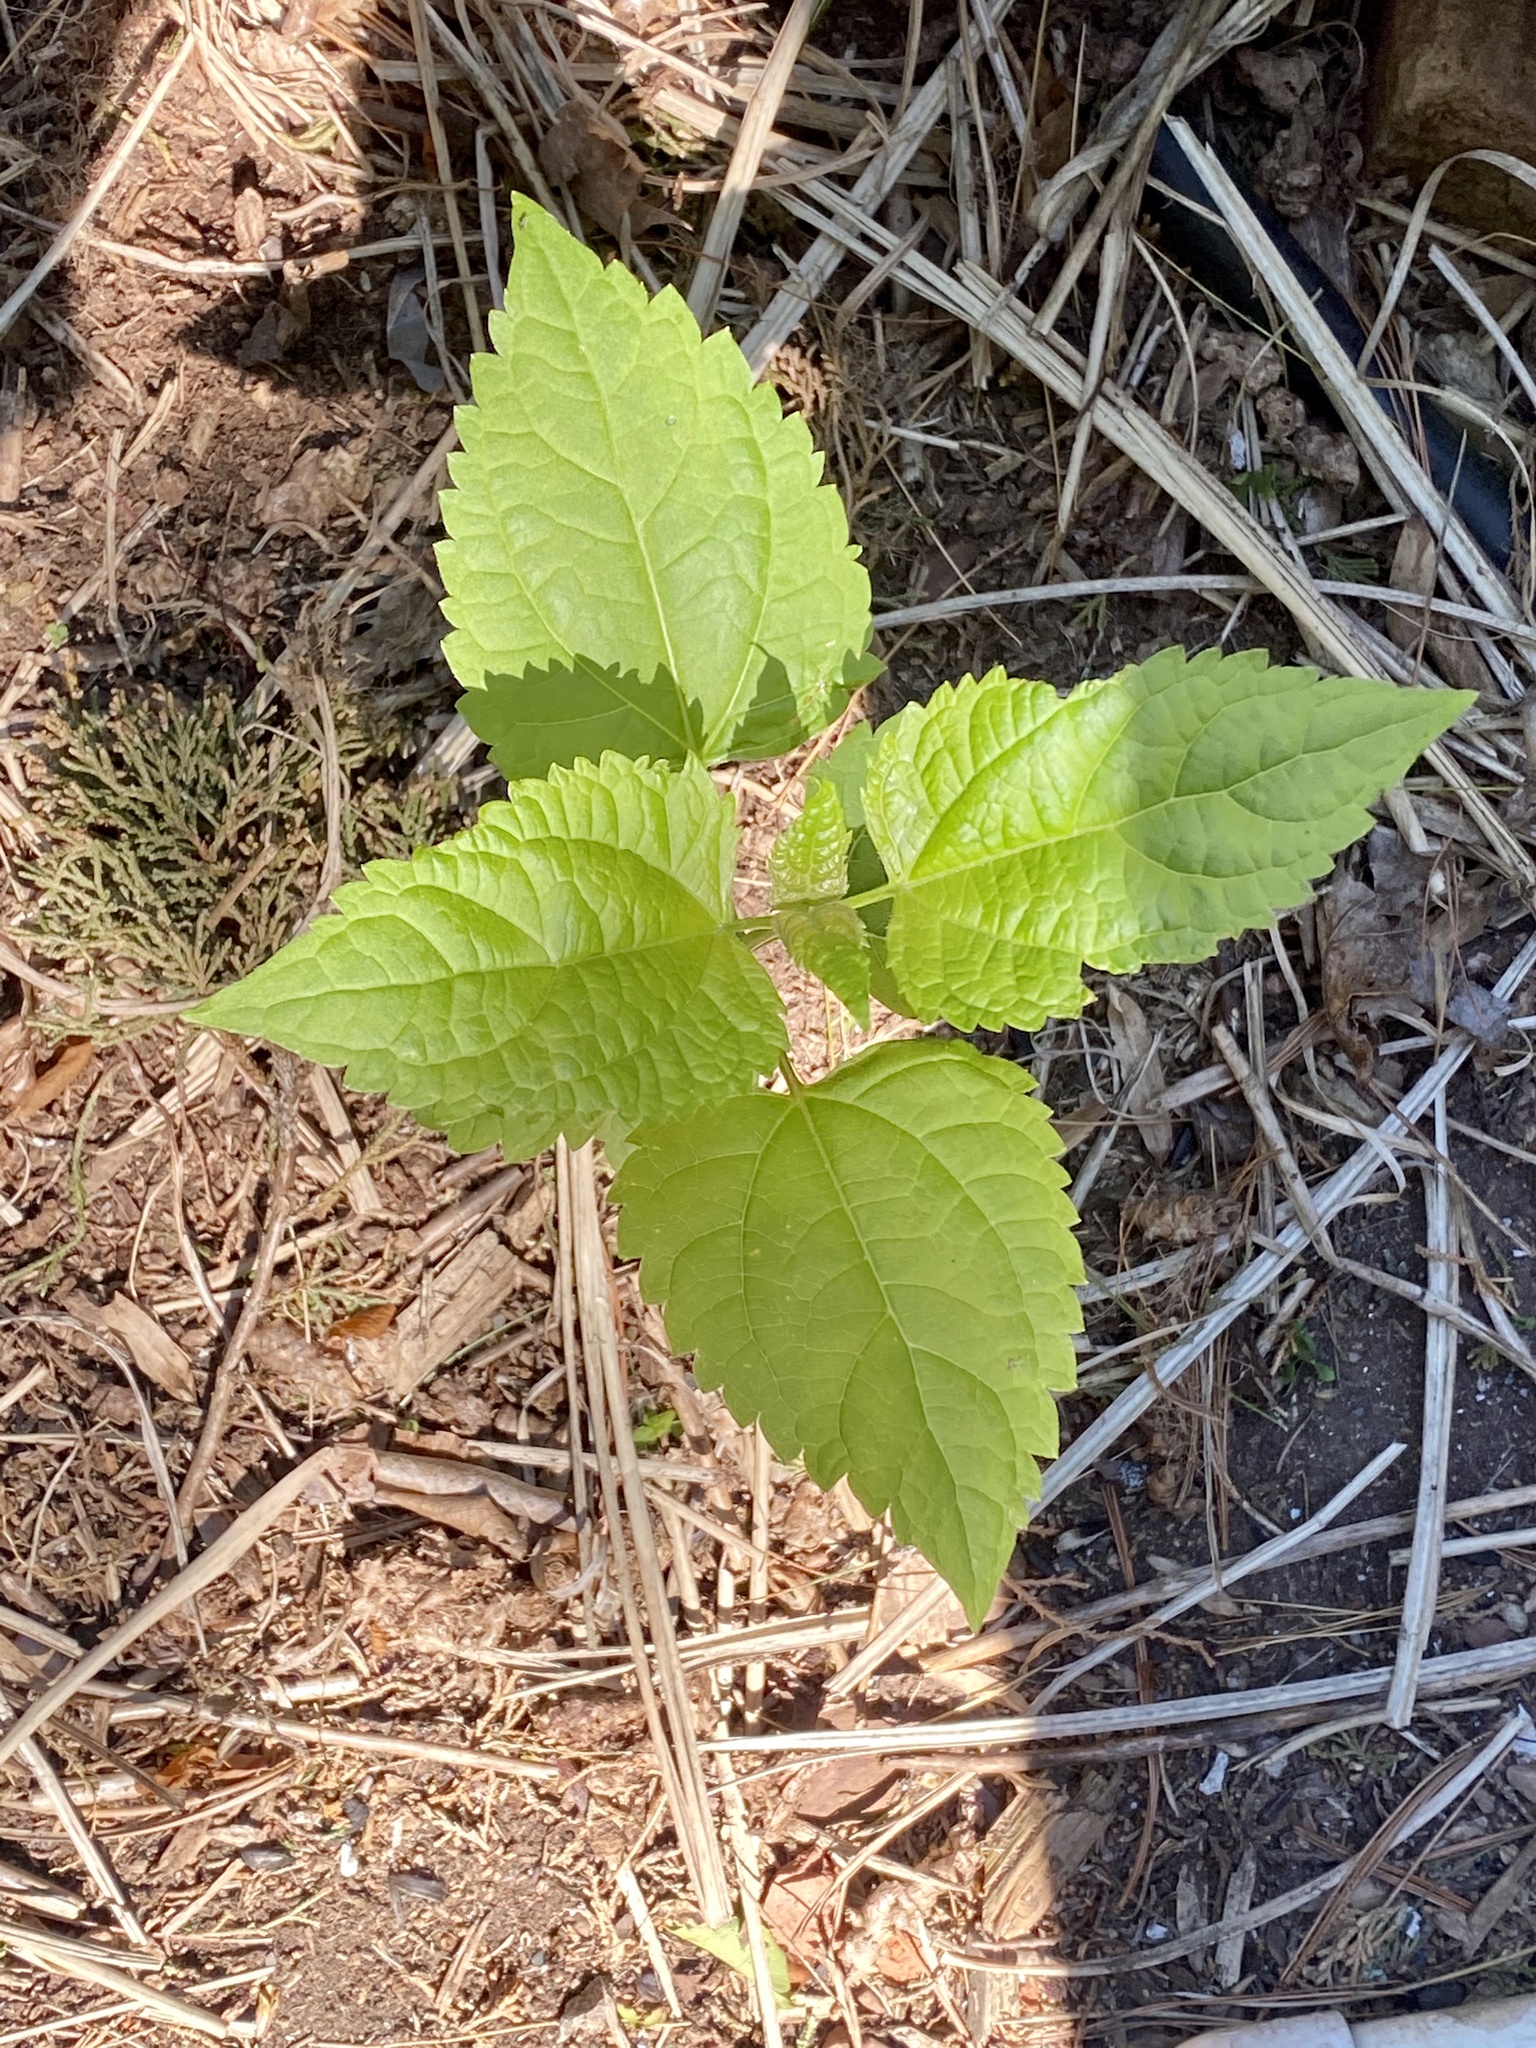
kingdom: Plantae
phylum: Tracheophyta
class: Magnoliopsida
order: Asterales
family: Asteraceae
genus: Ageratina
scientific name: Ageratina altissima
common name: White snakeroot
